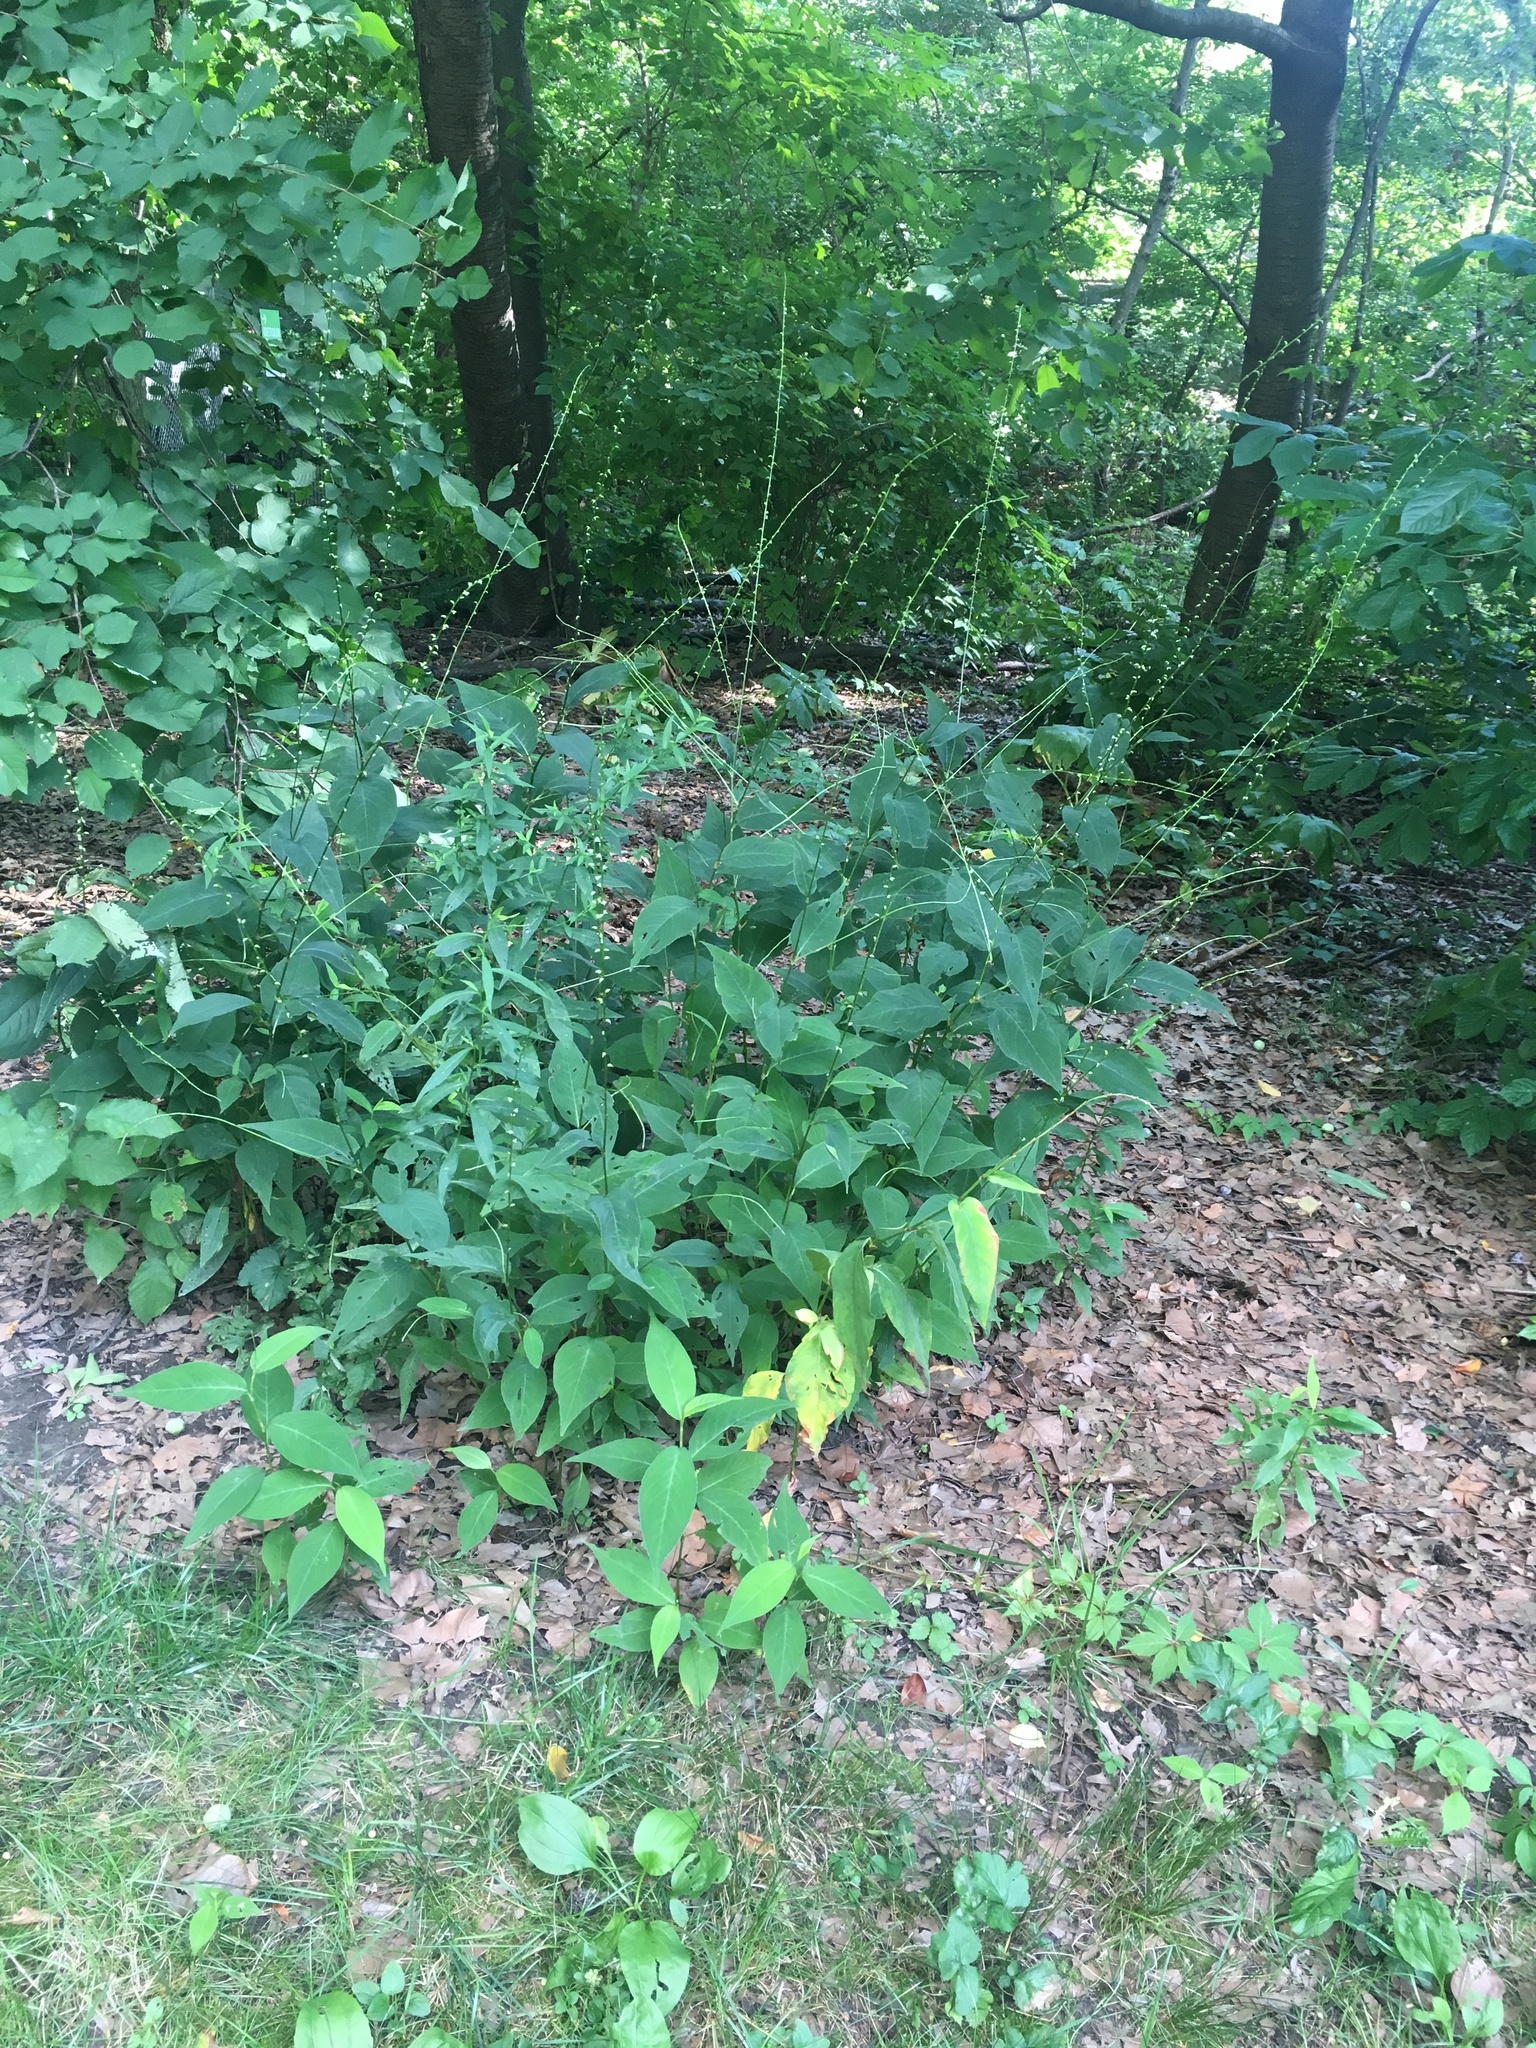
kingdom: Plantae
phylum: Tracheophyta
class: Magnoliopsida
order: Caryophyllales
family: Polygonaceae
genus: Persicaria
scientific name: Persicaria virginiana
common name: Jumpseed
